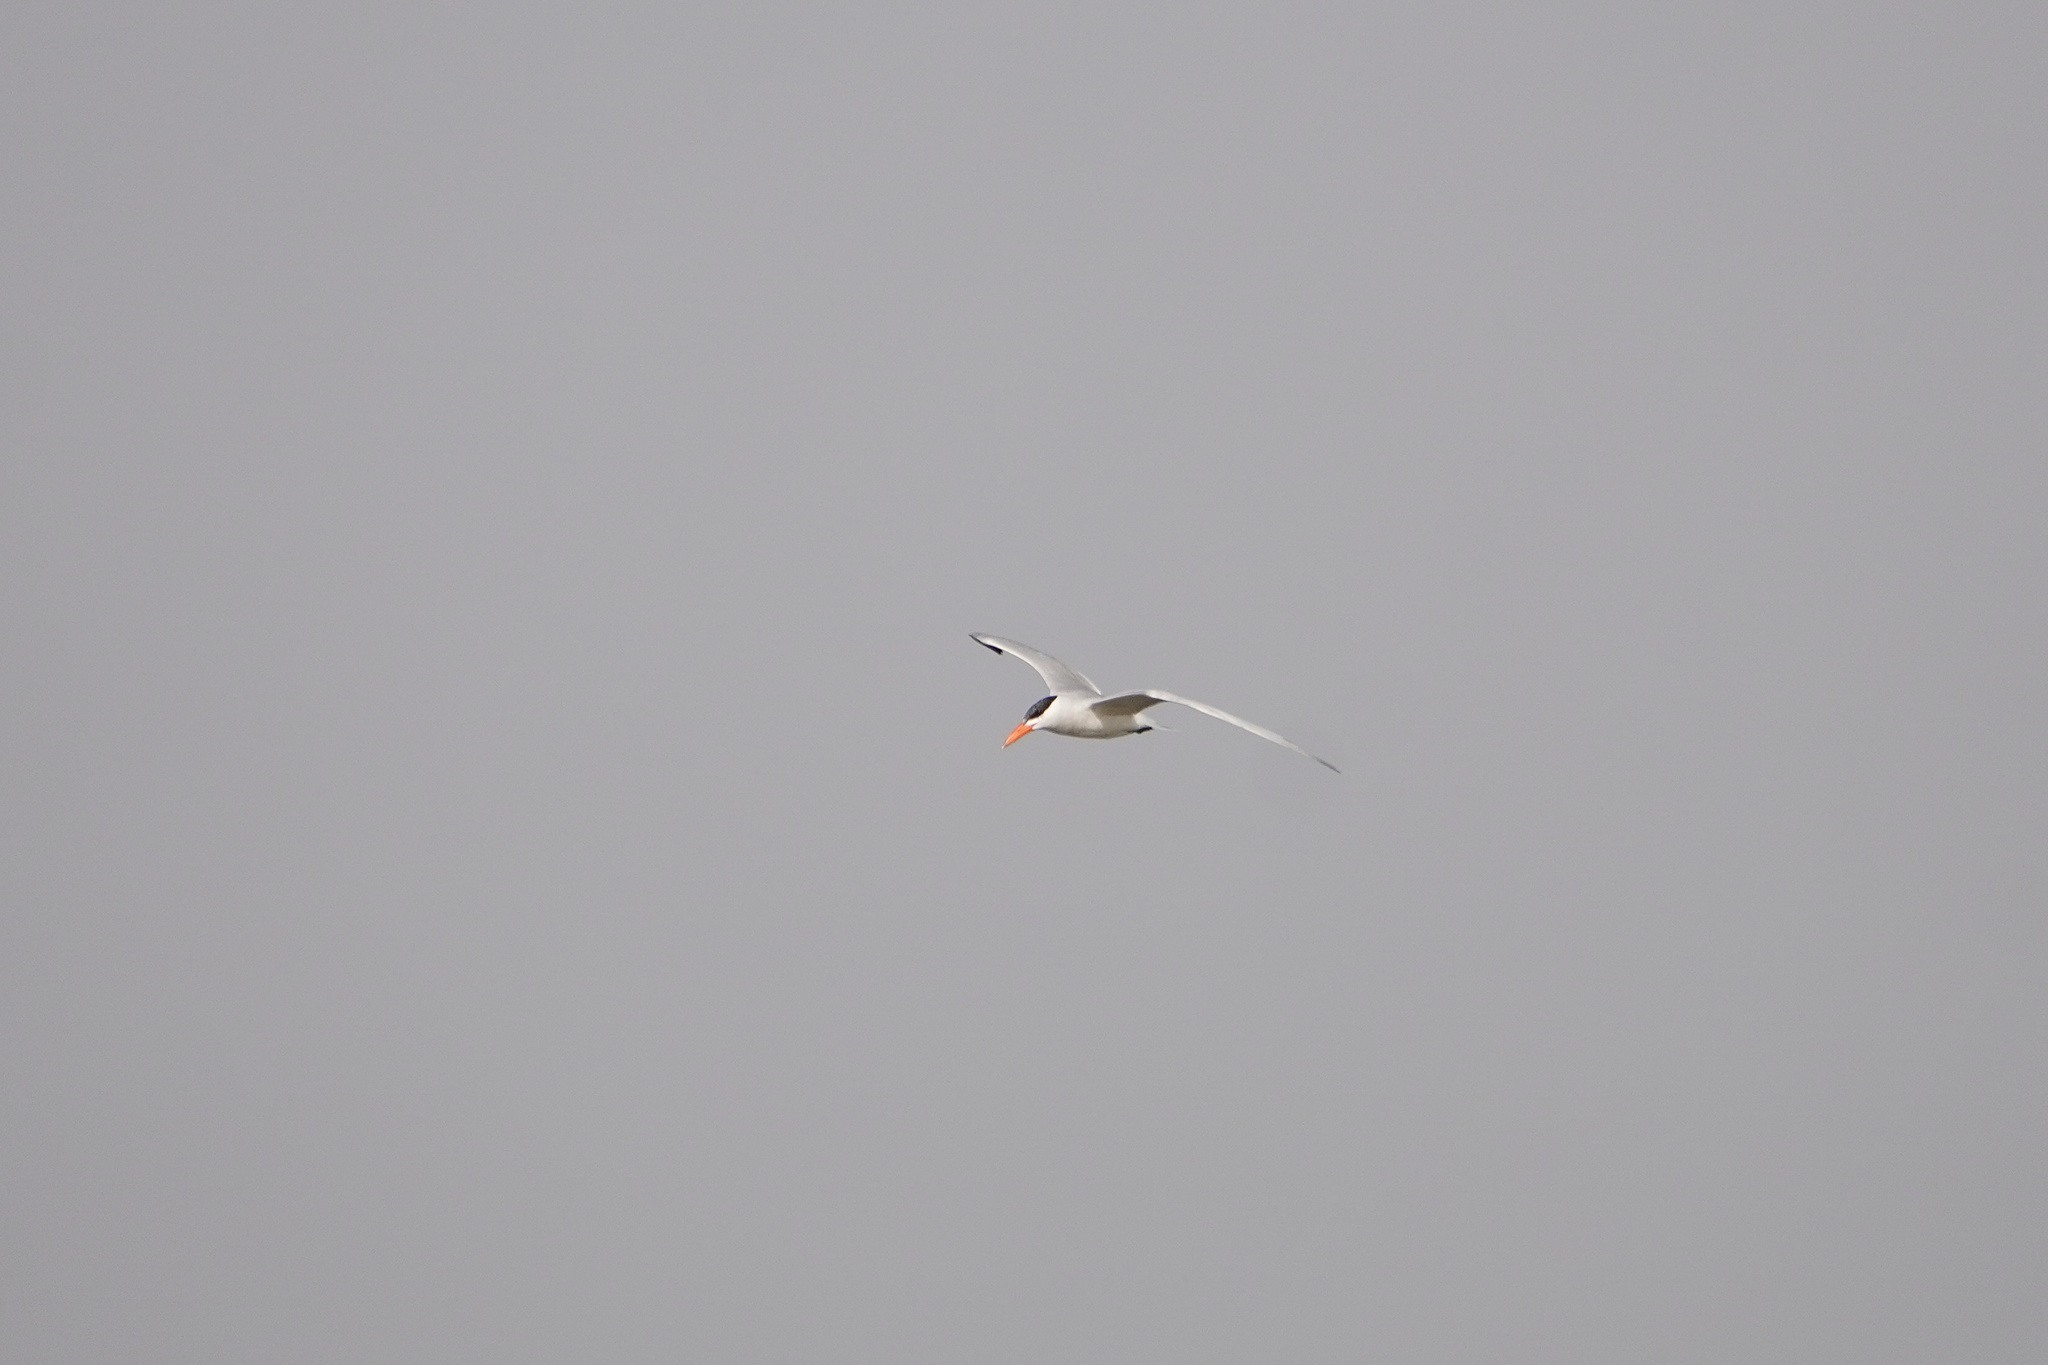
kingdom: Animalia
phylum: Chordata
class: Aves
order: Charadriiformes
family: Laridae
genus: Hydroprogne
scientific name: Hydroprogne caspia
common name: Caspian tern
